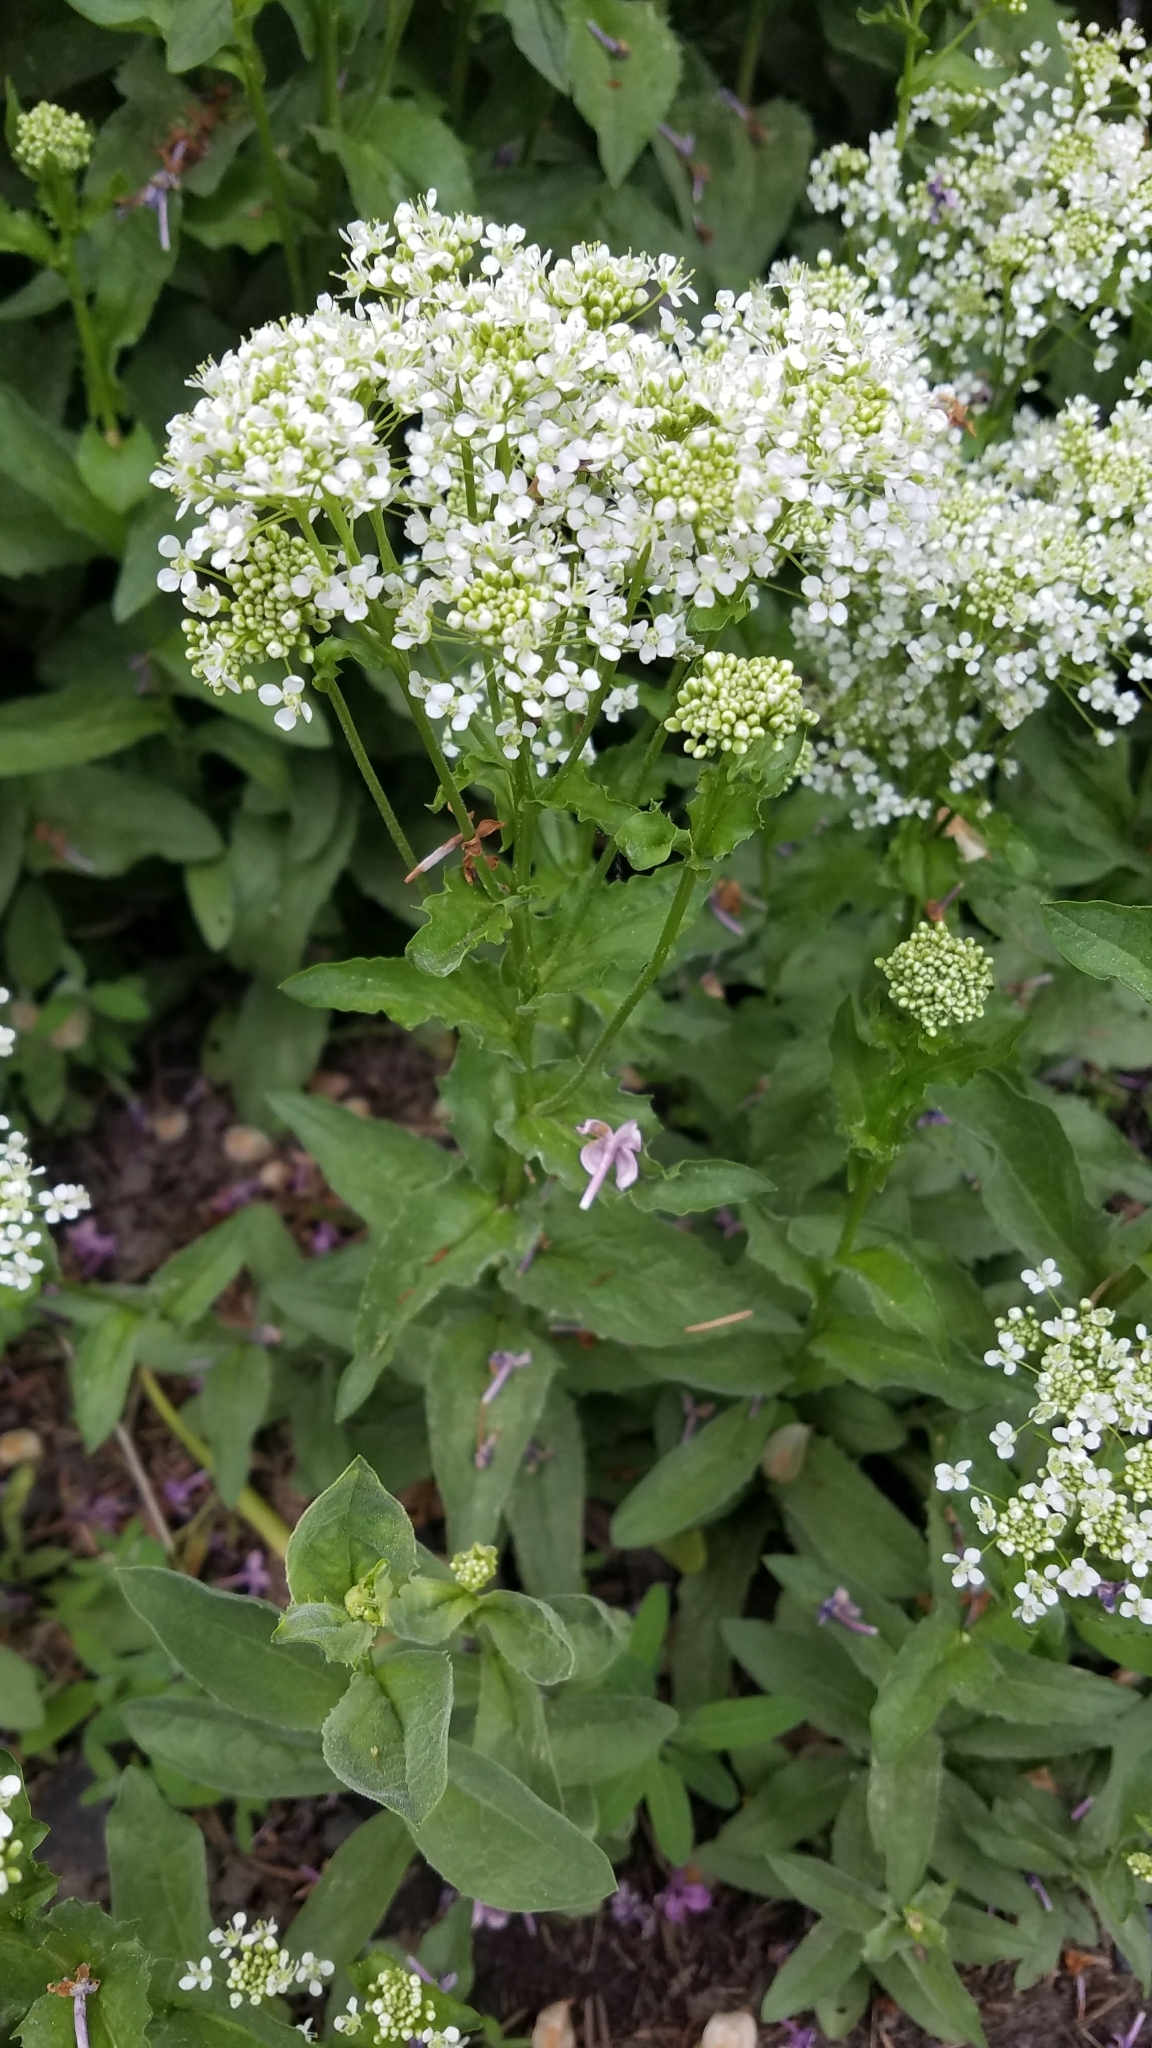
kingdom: Plantae
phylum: Tracheophyta
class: Magnoliopsida
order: Brassicales
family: Brassicaceae
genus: Lepidium
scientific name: Lepidium draba
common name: Hoary cress
